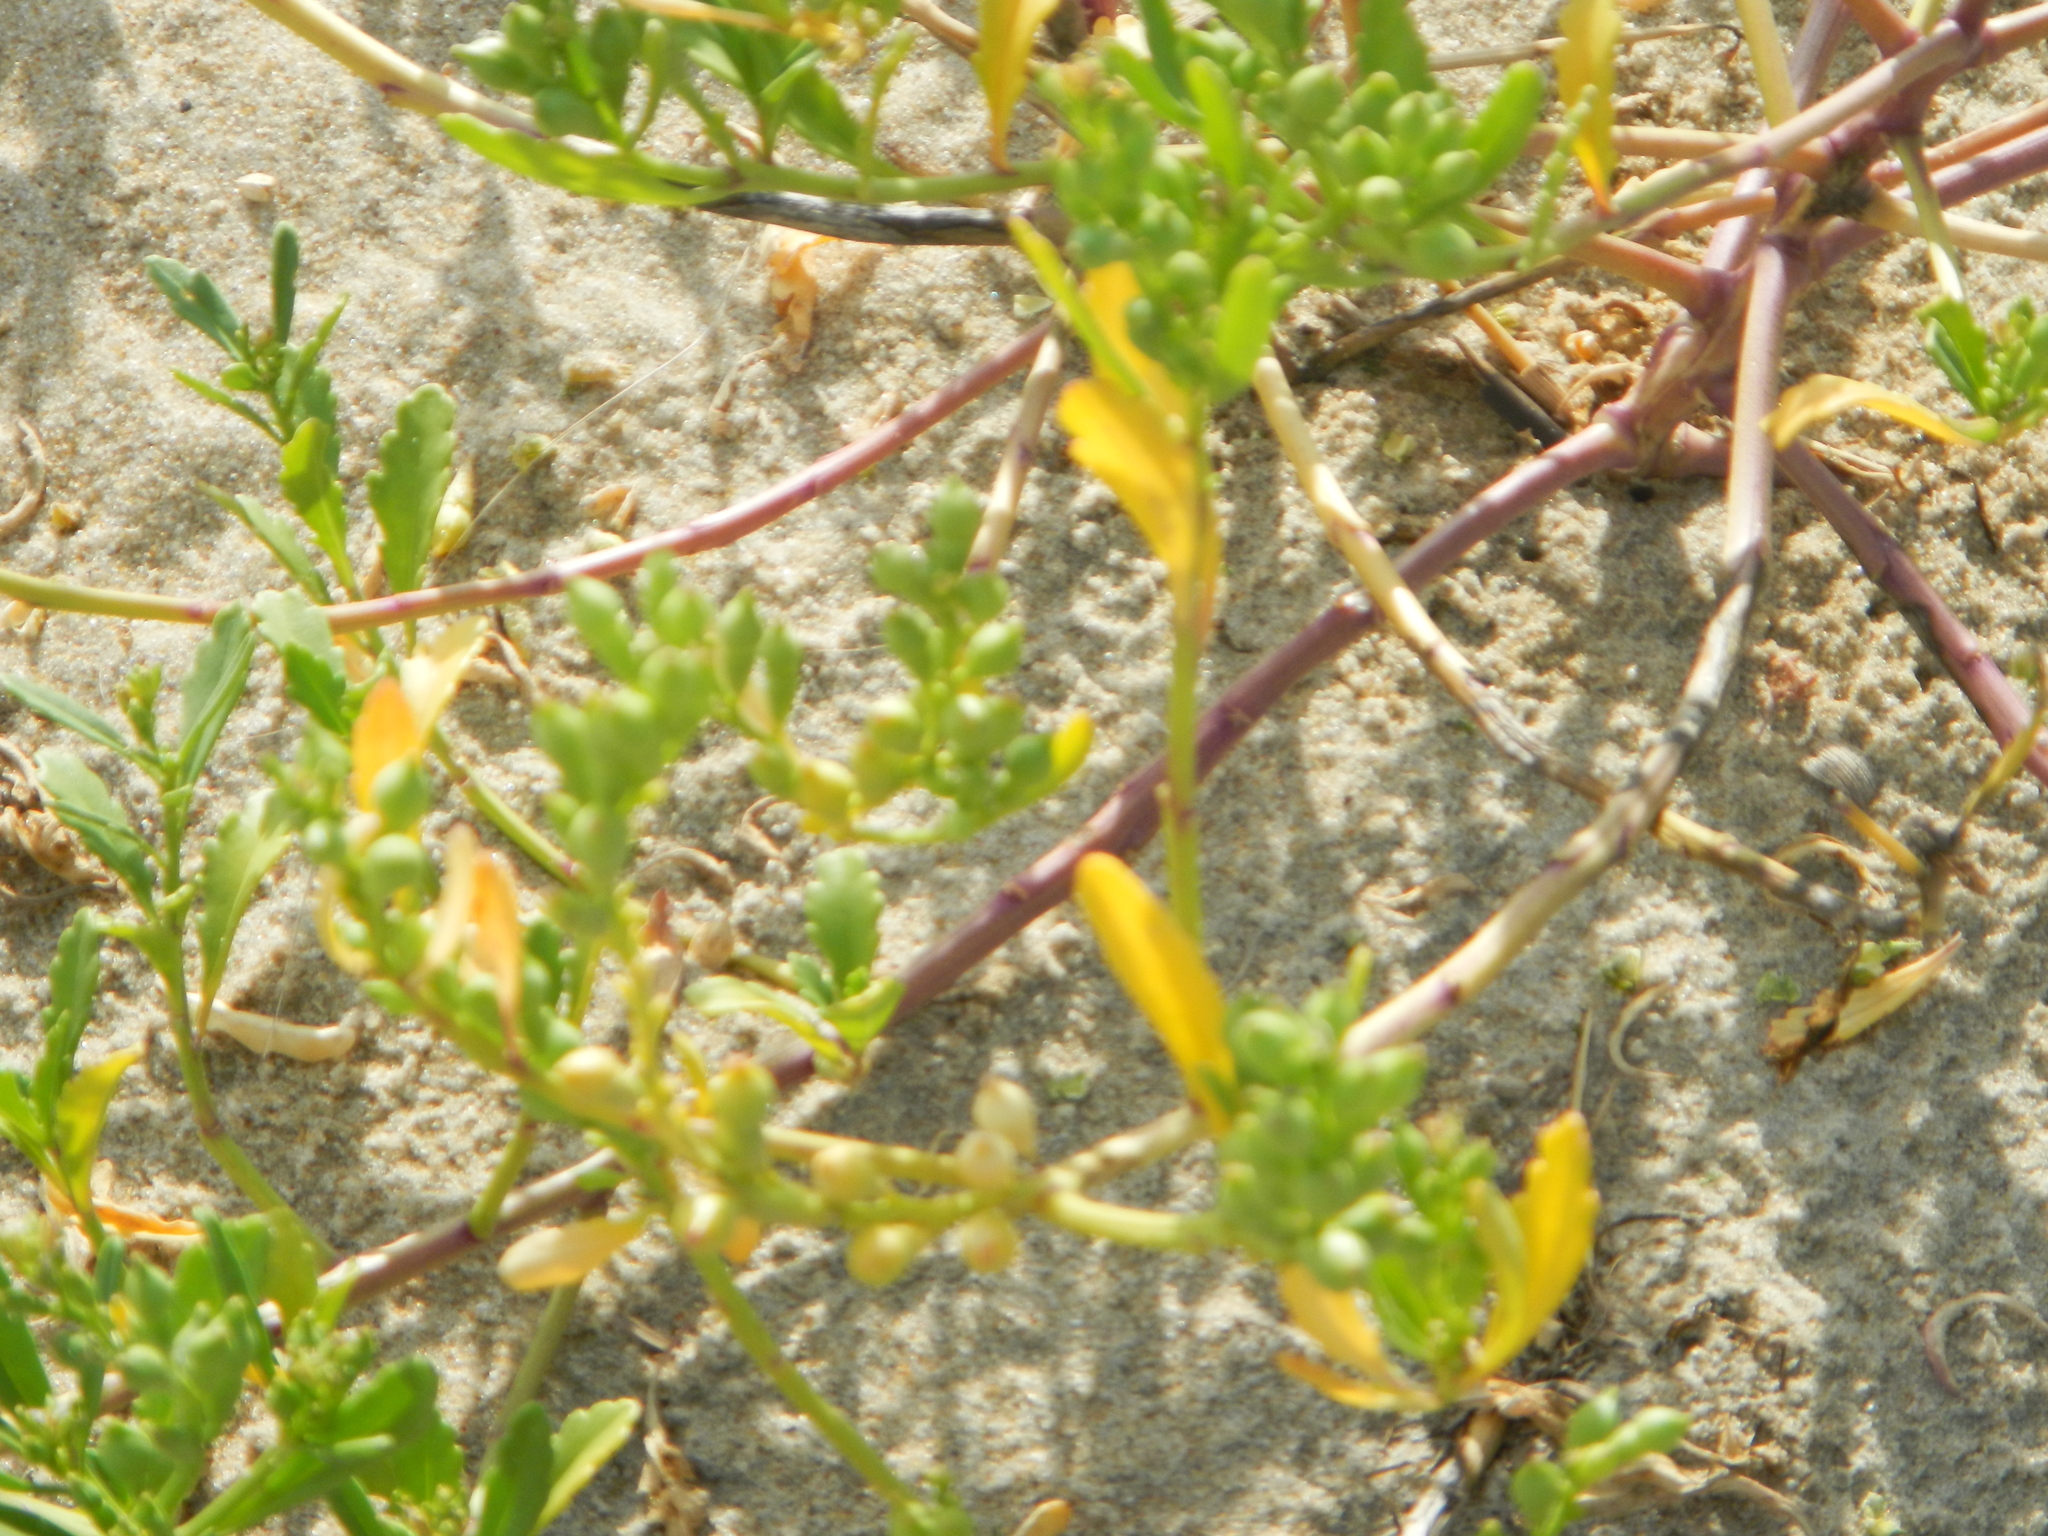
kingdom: Plantae
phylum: Tracheophyta
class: Magnoliopsida
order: Brassicales
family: Brassicaceae
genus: Cakile
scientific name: Cakile edentula
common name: American sea rocket
